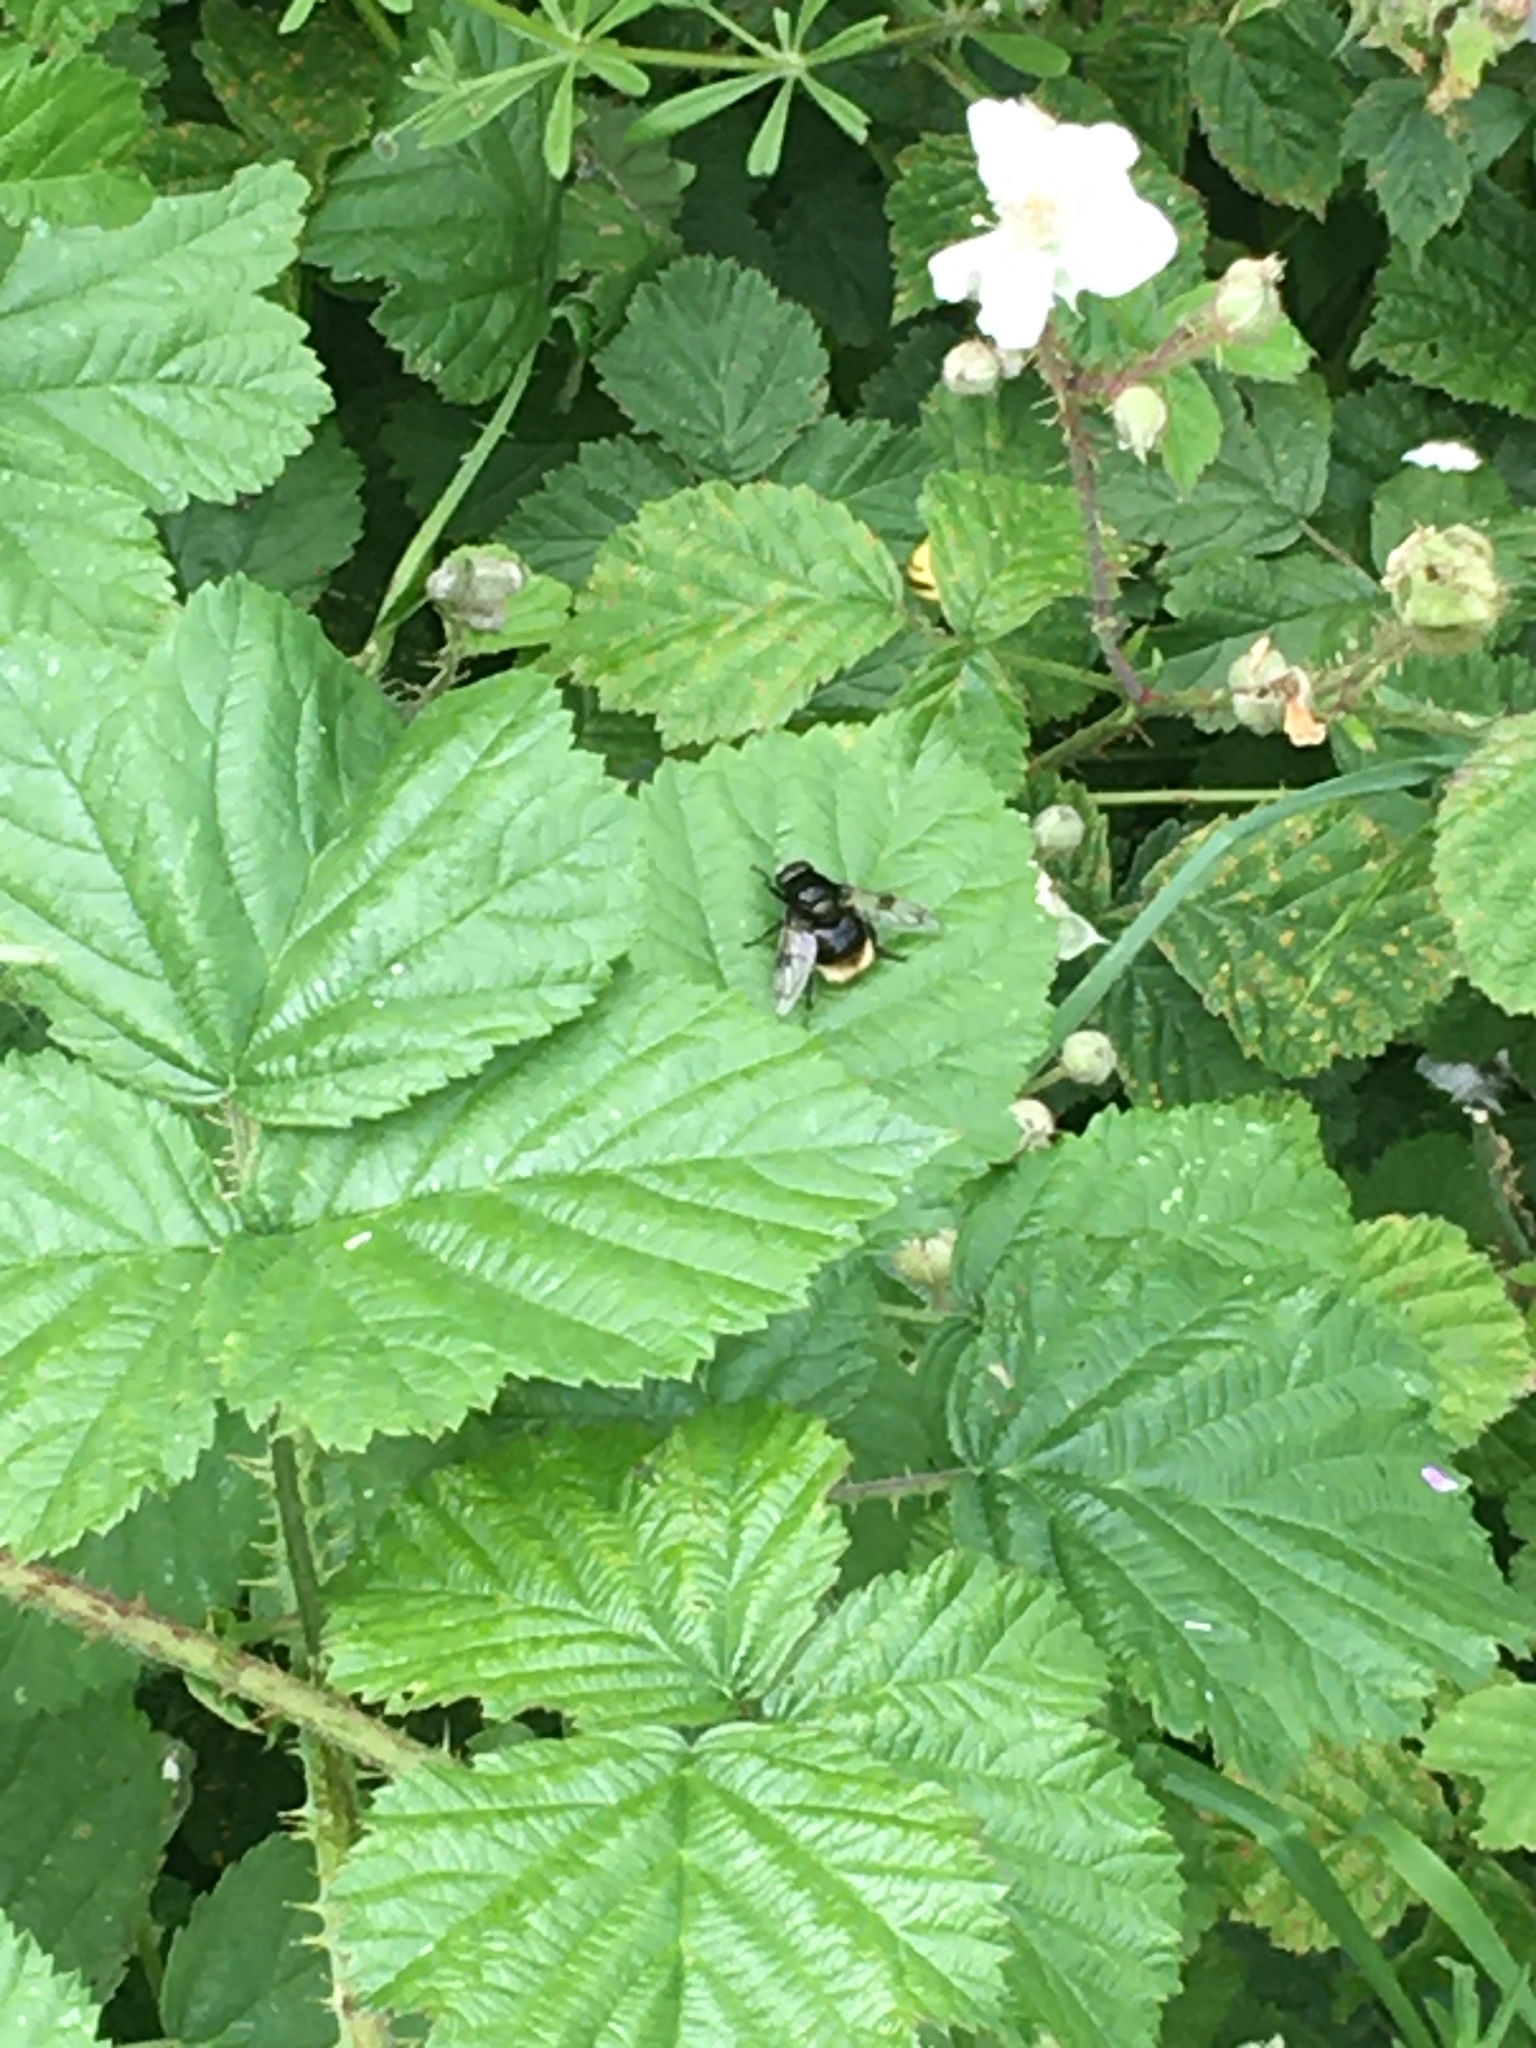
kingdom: Animalia
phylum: Arthropoda
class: Insecta
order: Diptera
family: Syrphidae
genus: Volucella
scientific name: Volucella bombylans
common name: Bumble bee hover fly
